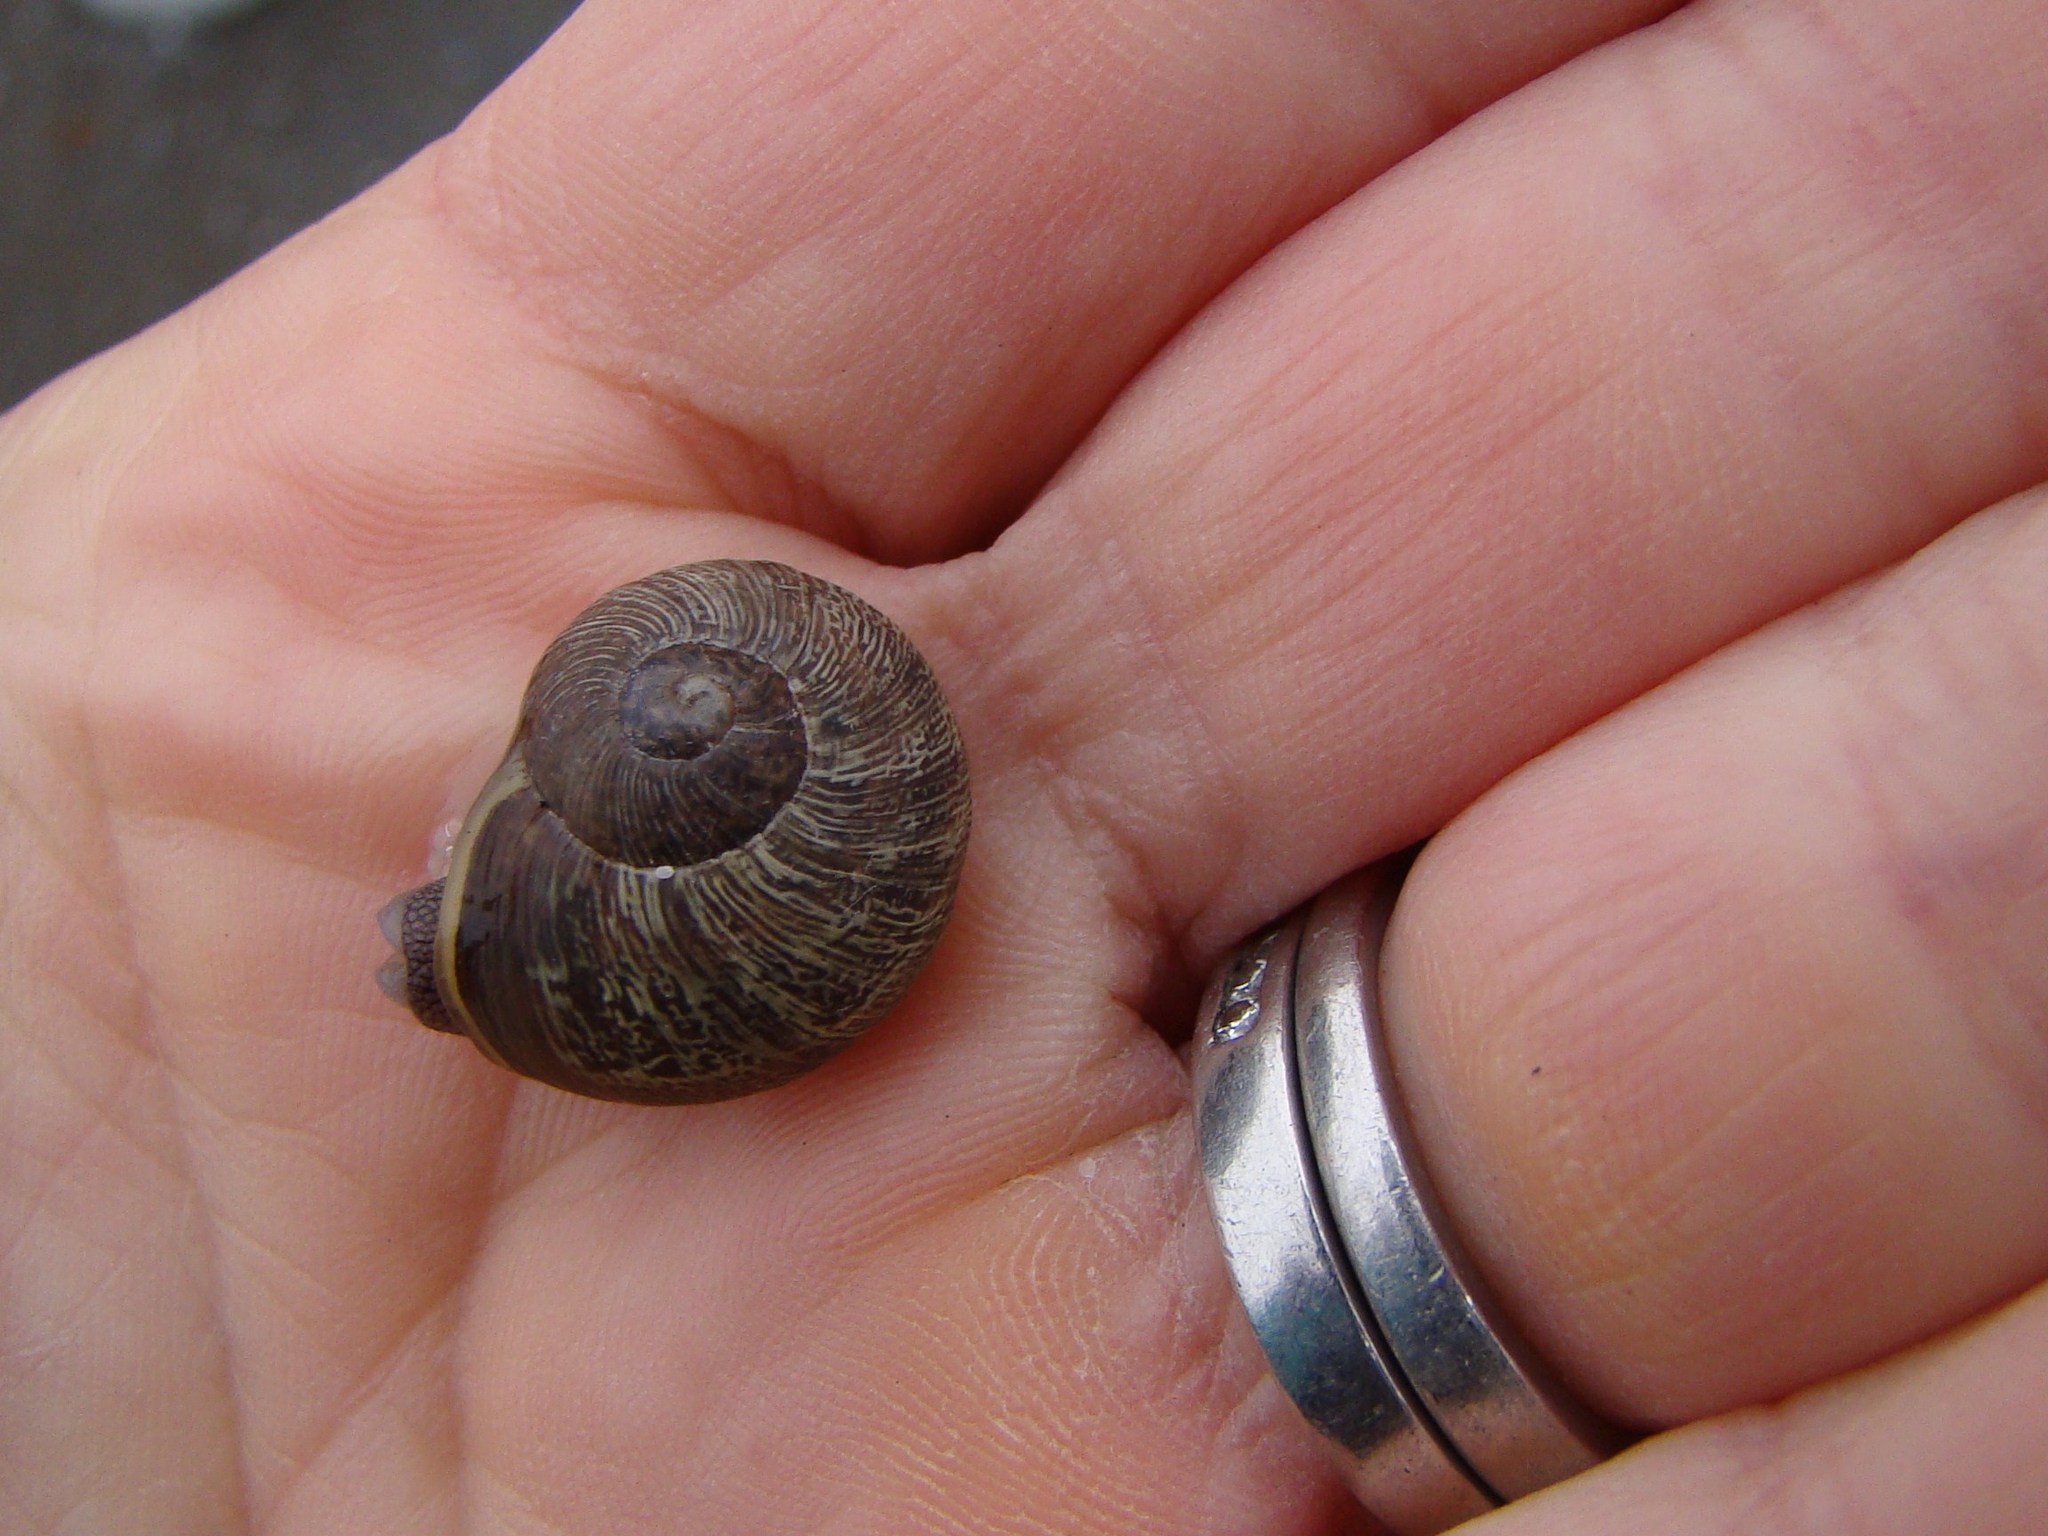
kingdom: Animalia
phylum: Mollusca
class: Gastropoda
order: Stylommatophora
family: Helicidae
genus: Cornu
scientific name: Cornu aspersum
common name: Brown garden snail
